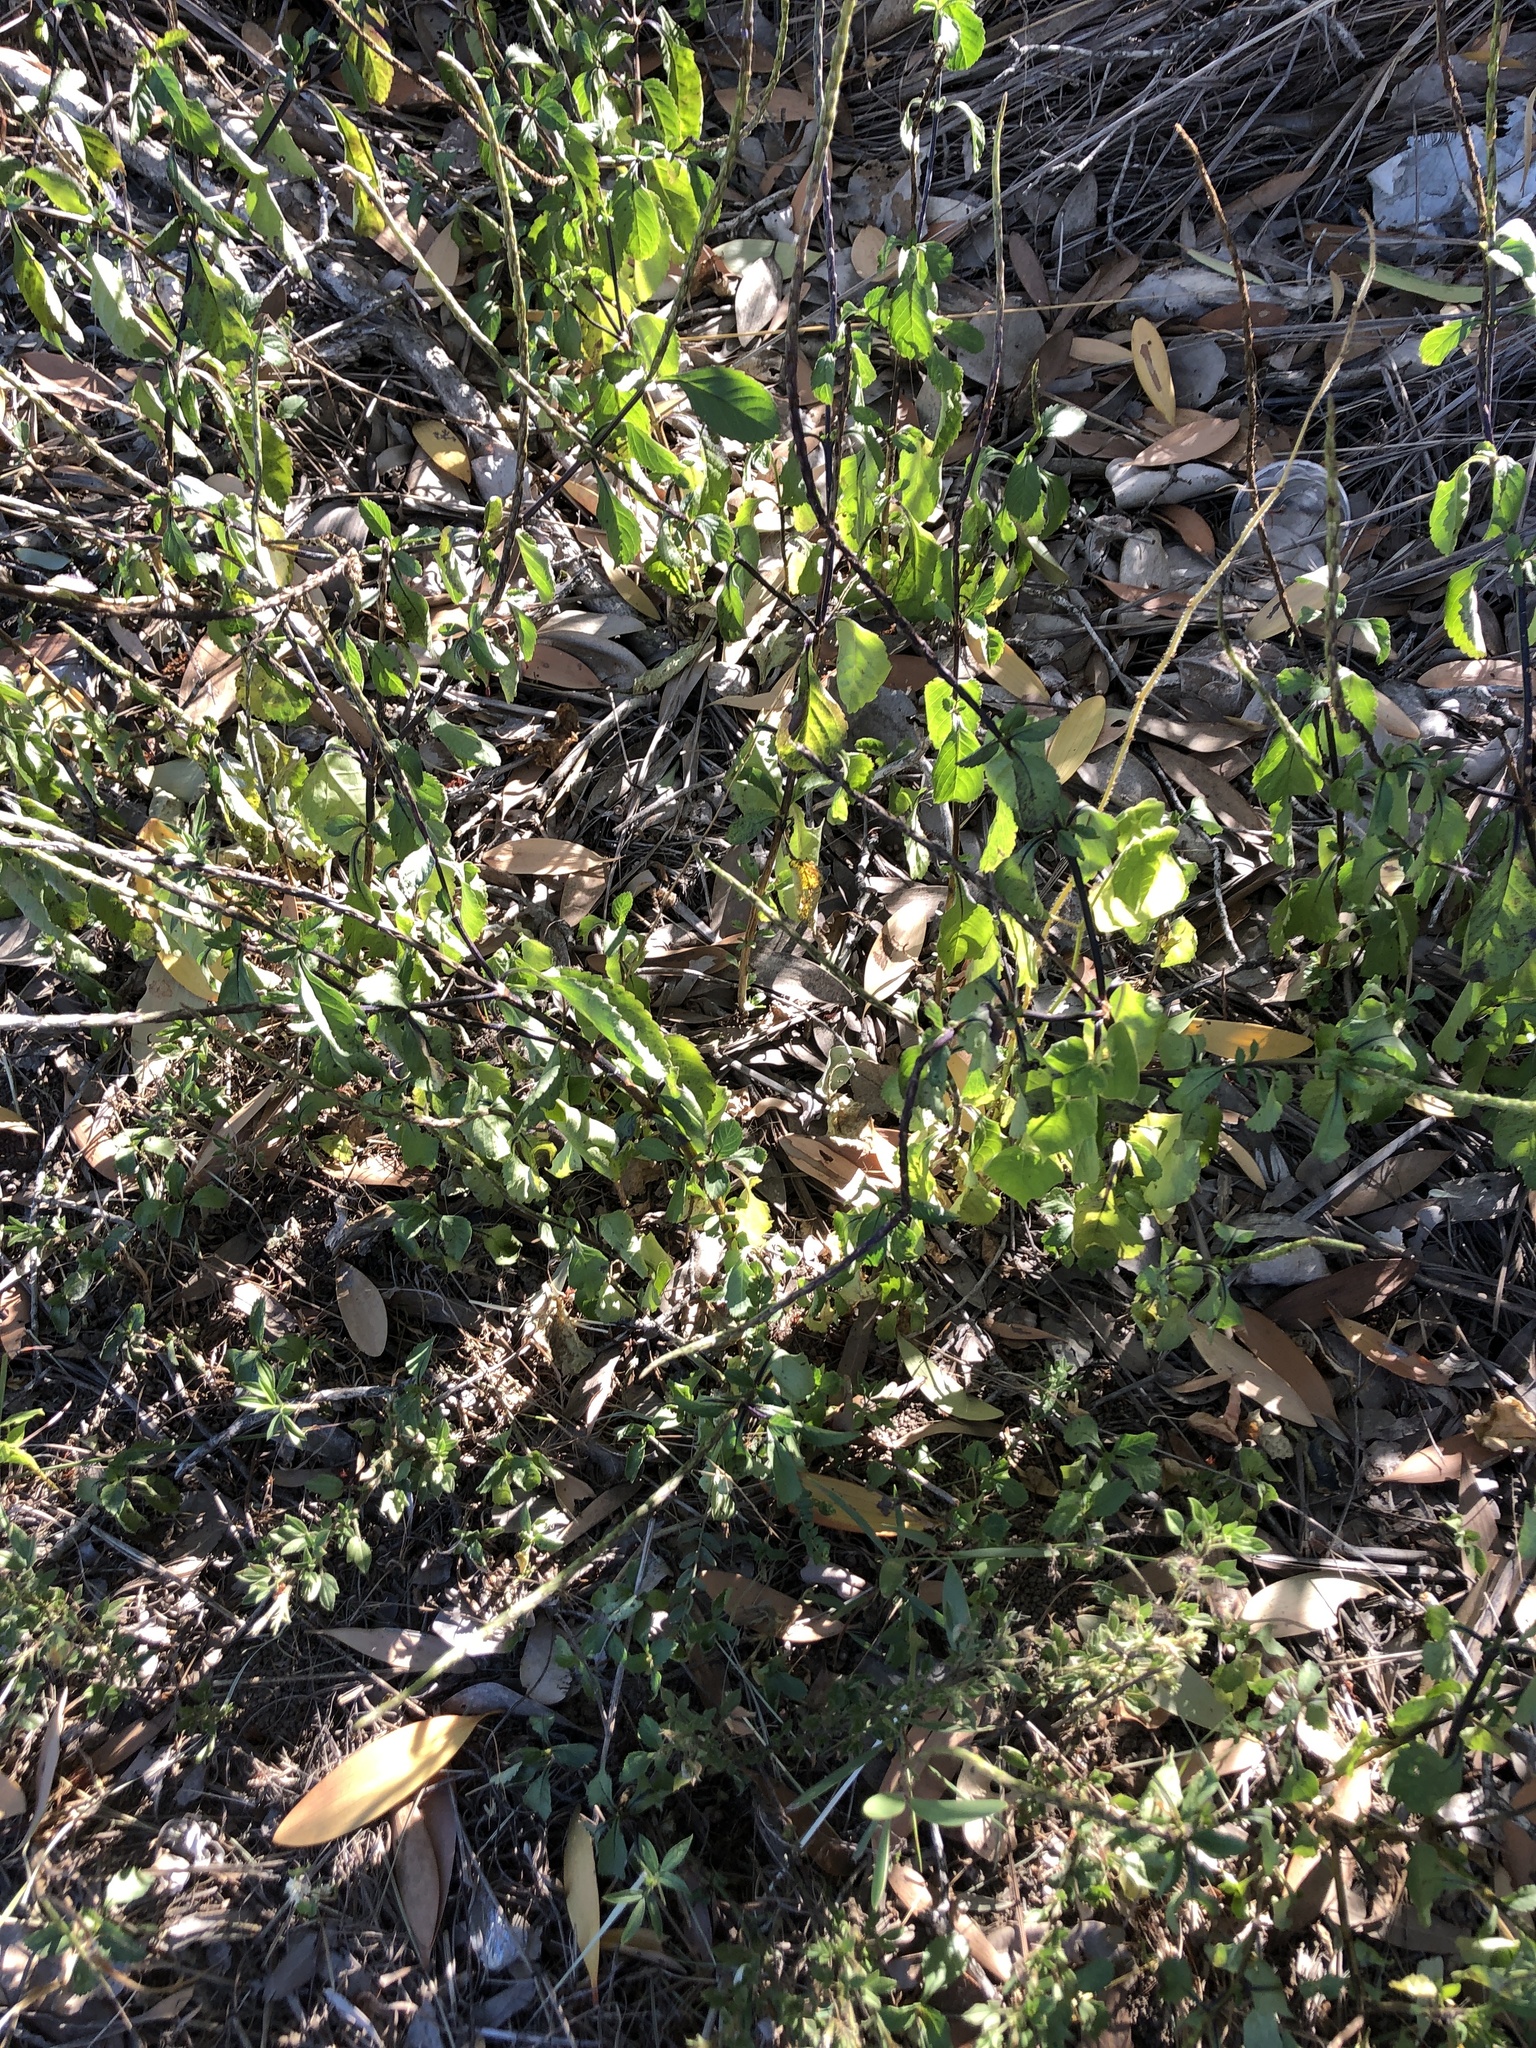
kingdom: Plantae
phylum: Tracheophyta
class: Magnoliopsida
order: Lamiales
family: Verbenaceae
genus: Stachytarpheta
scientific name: Stachytarpheta jamaicensis
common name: Light-blue snakeweed
